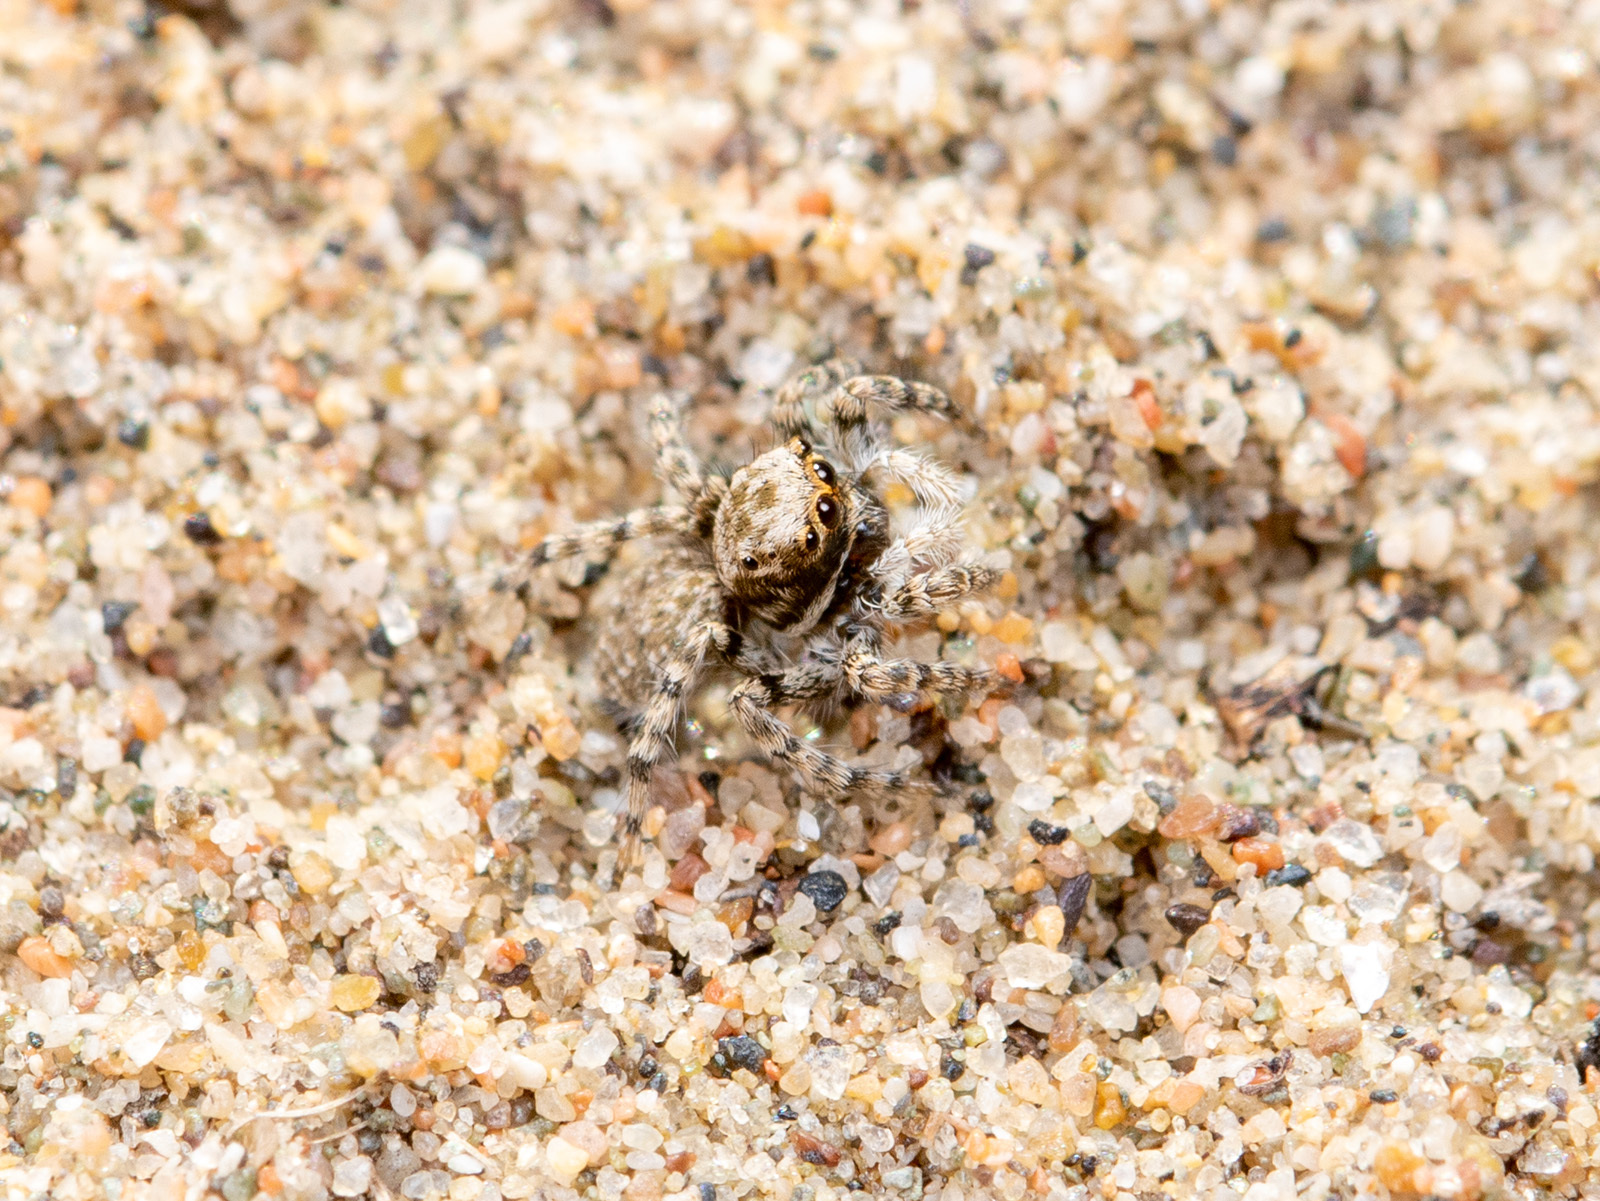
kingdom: Animalia
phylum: Arthropoda
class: Arachnida
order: Araneae
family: Salticidae
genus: Aelurillus
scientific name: Aelurillus andreevae
